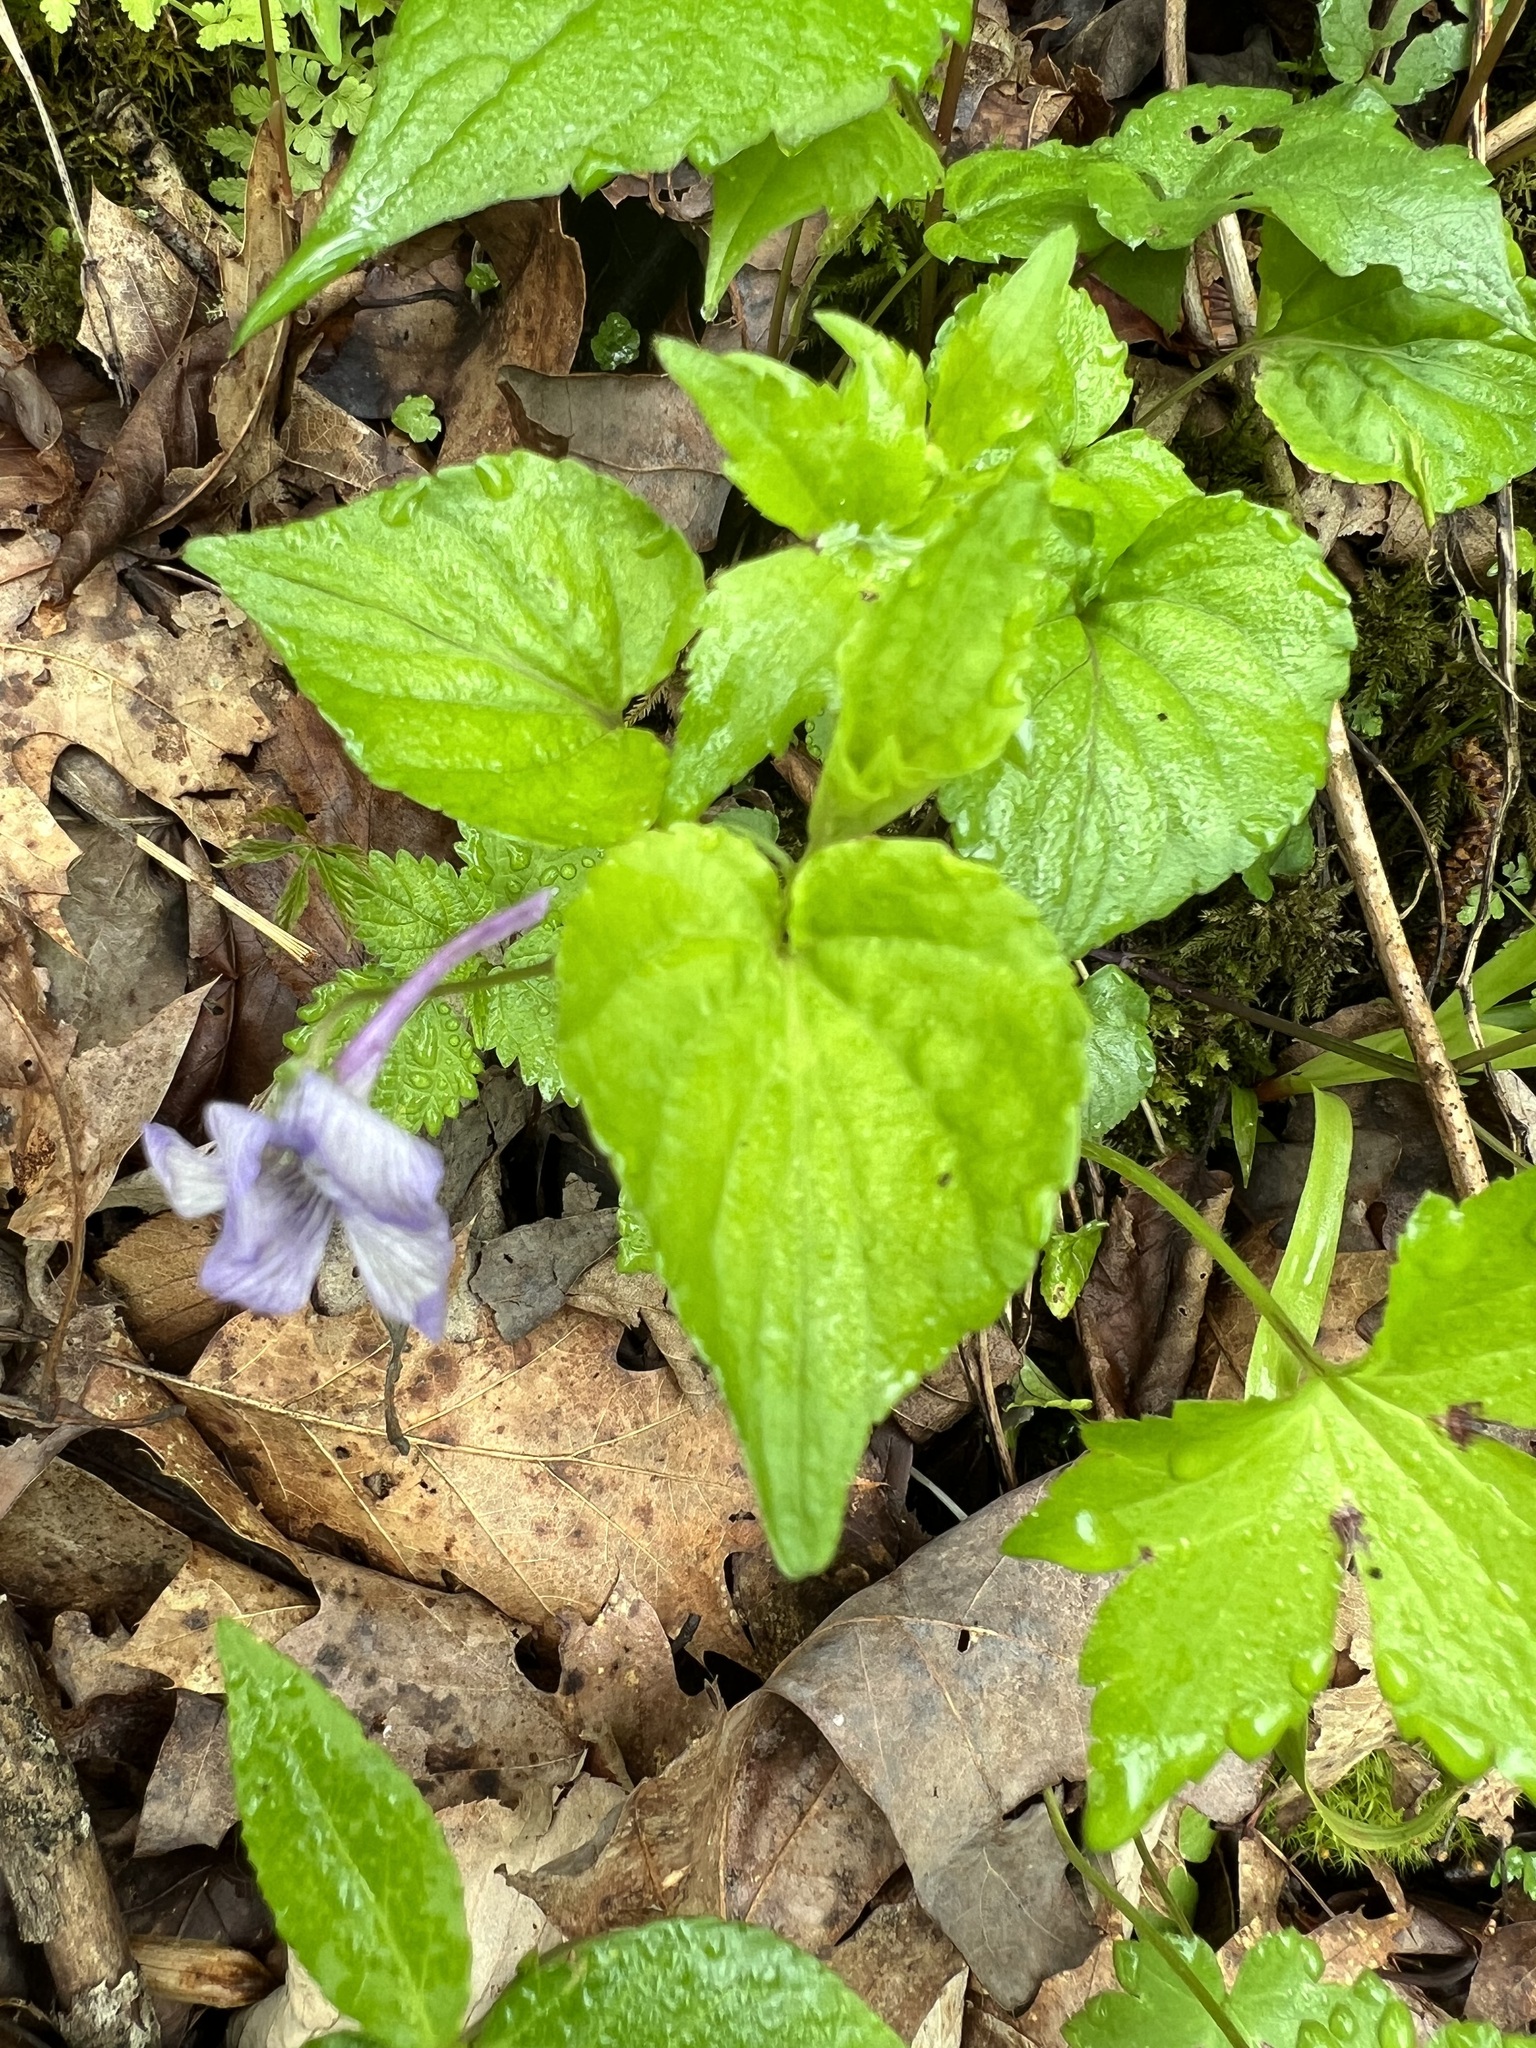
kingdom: Plantae
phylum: Tracheophyta
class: Magnoliopsida
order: Malpighiales
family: Violaceae
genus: Viola
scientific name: Viola rostrata
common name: Long-spur violet
